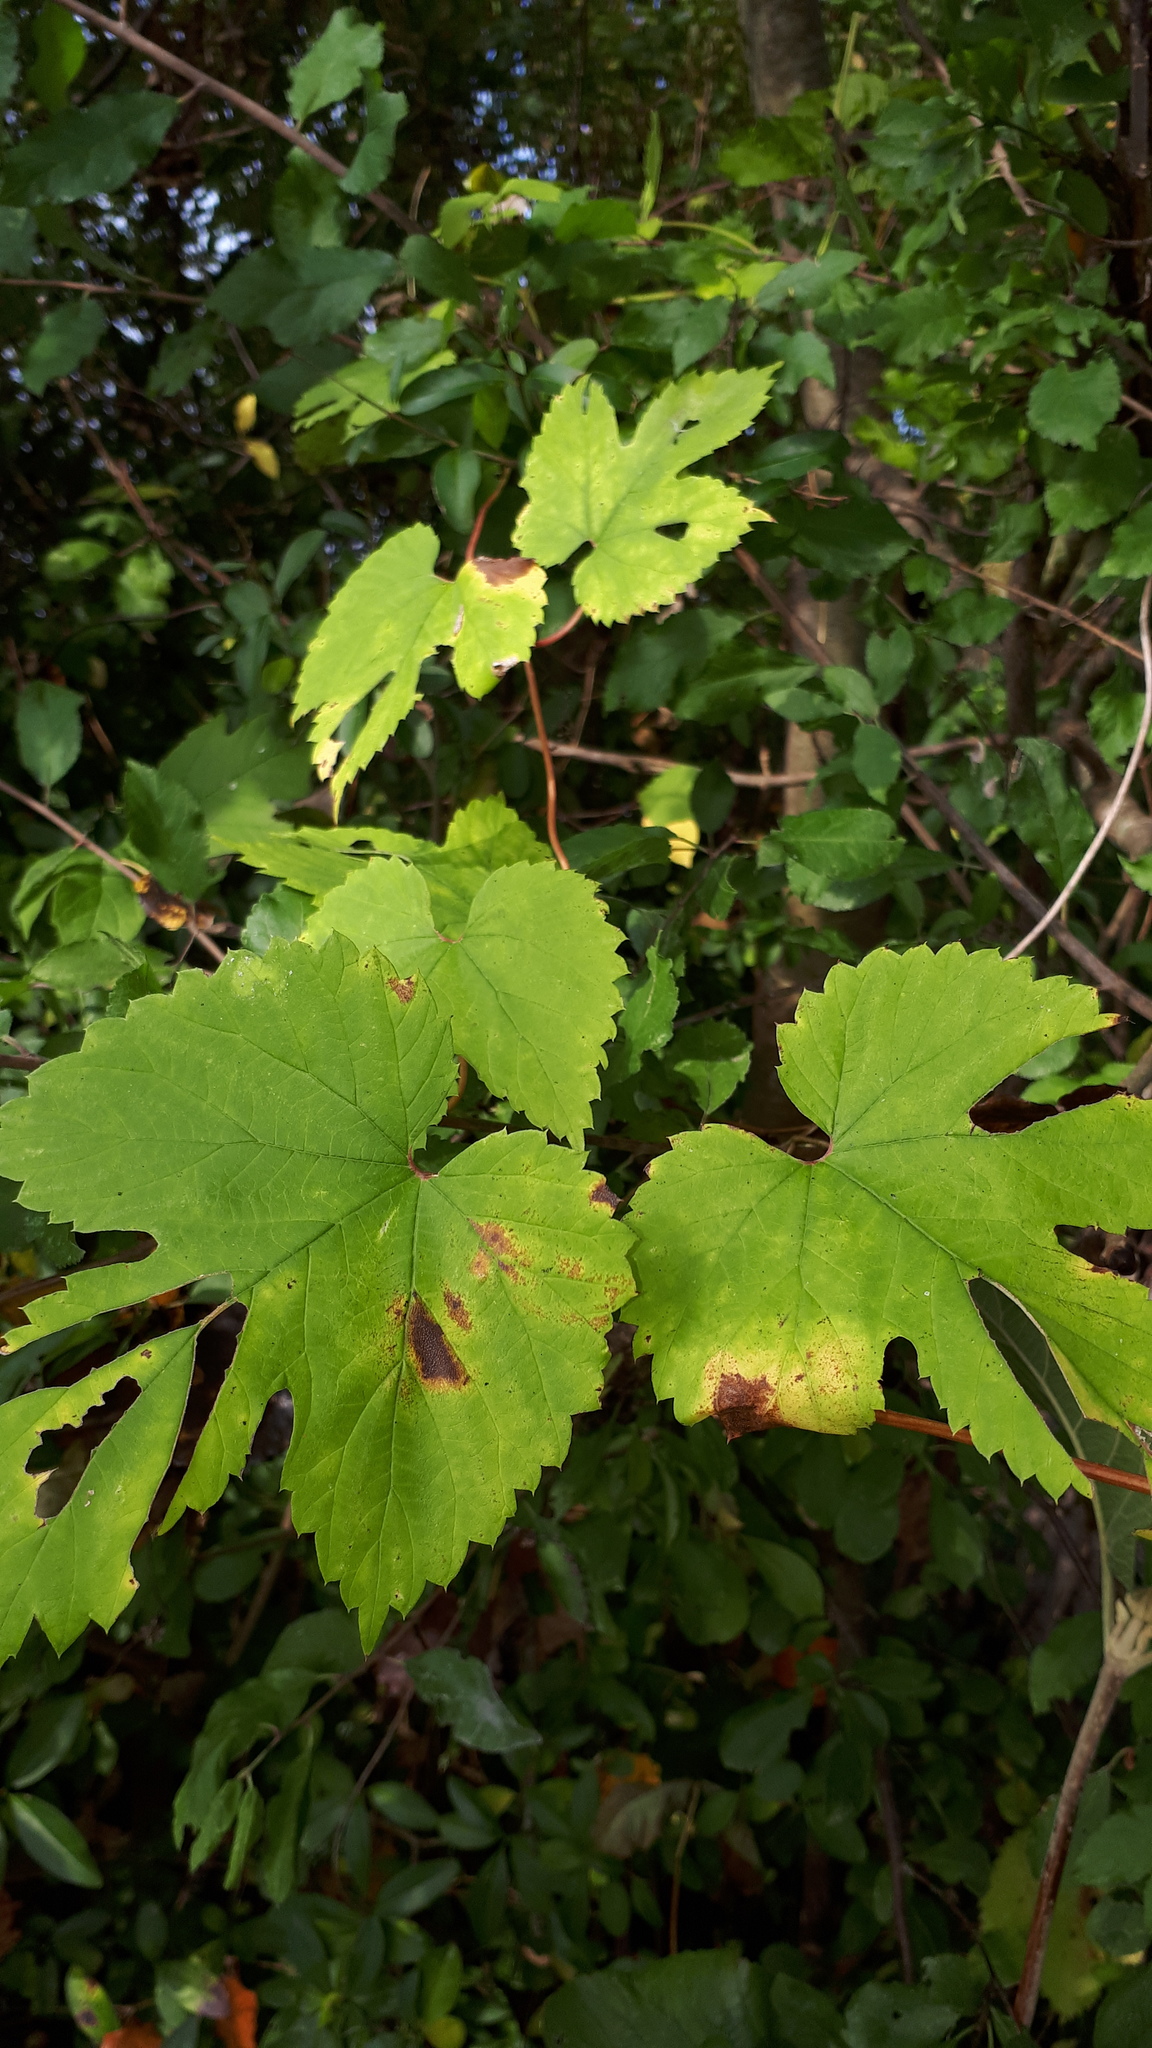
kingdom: Plantae
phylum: Tracheophyta
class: Magnoliopsida
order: Rosales
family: Cannabaceae
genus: Humulus
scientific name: Humulus lupulus
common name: Hop
